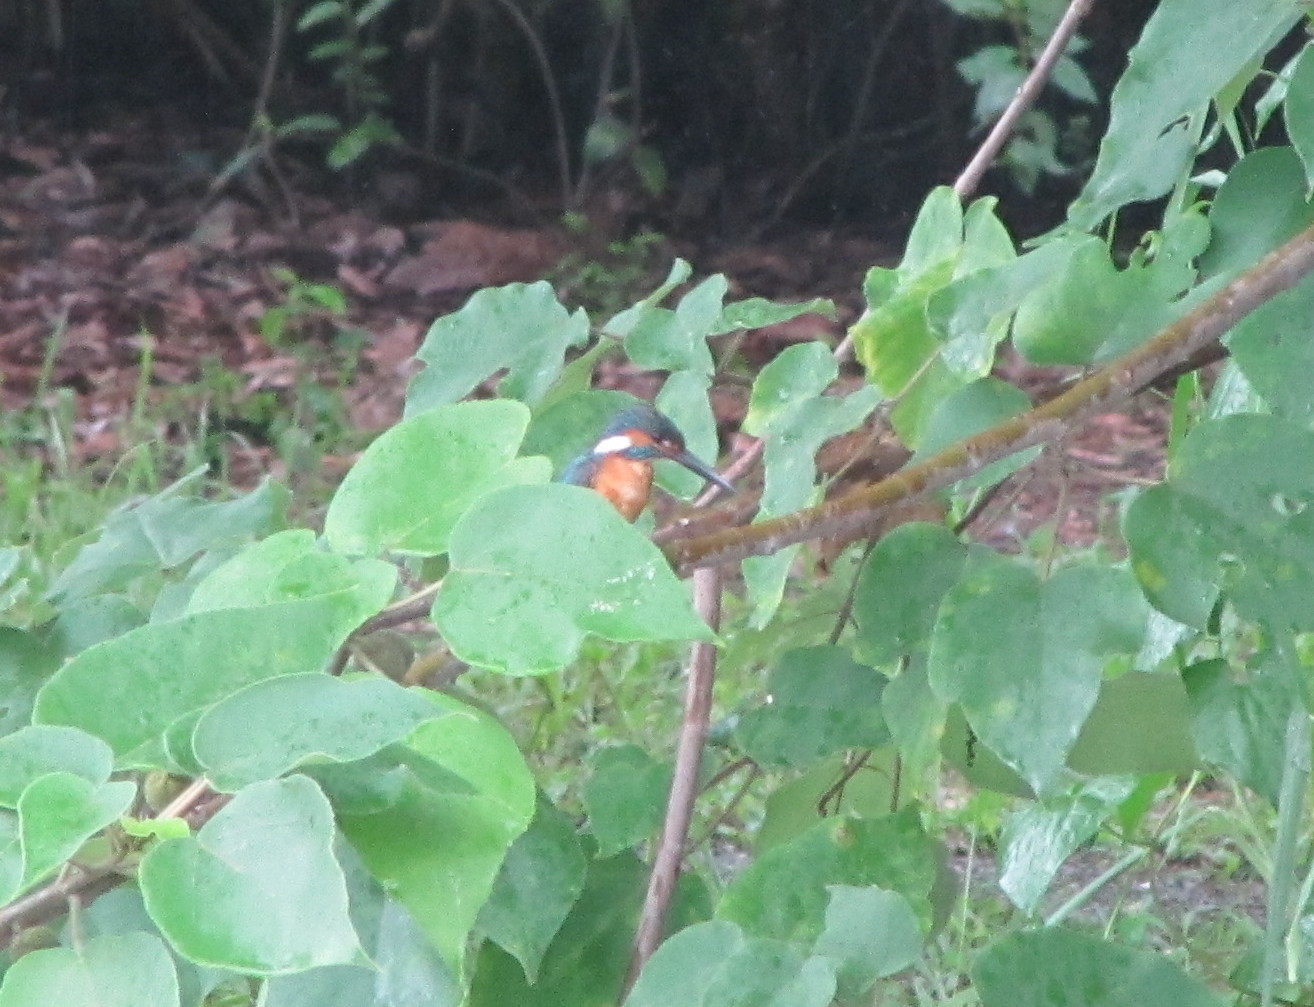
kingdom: Animalia
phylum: Chordata
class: Aves
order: Coraciiformes
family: Alcedinidae
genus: Alcedo
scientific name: Alcedo atthis
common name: Common kingfisher
